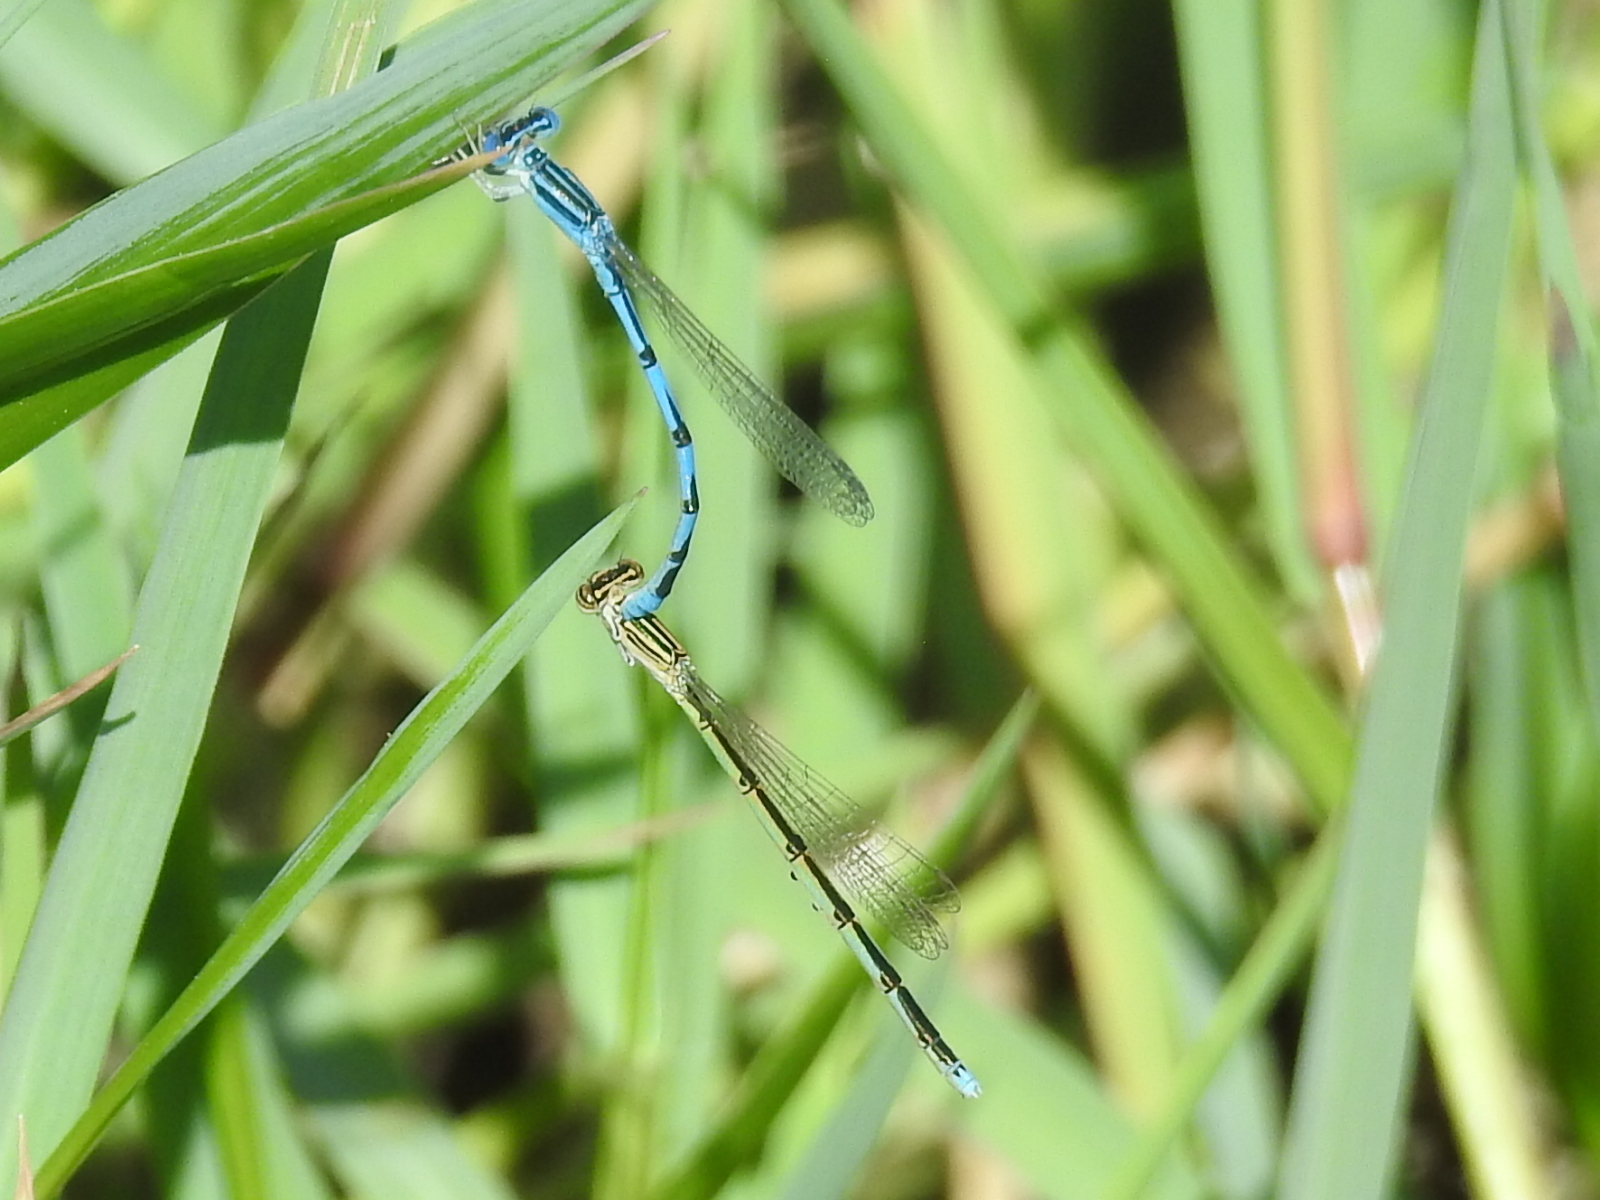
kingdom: Animalia
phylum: Arthropoda
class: Insecta
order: Odonata
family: Coenagrionidae
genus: Enallagma
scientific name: Enallagma basidens
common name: Double-striped bluet
